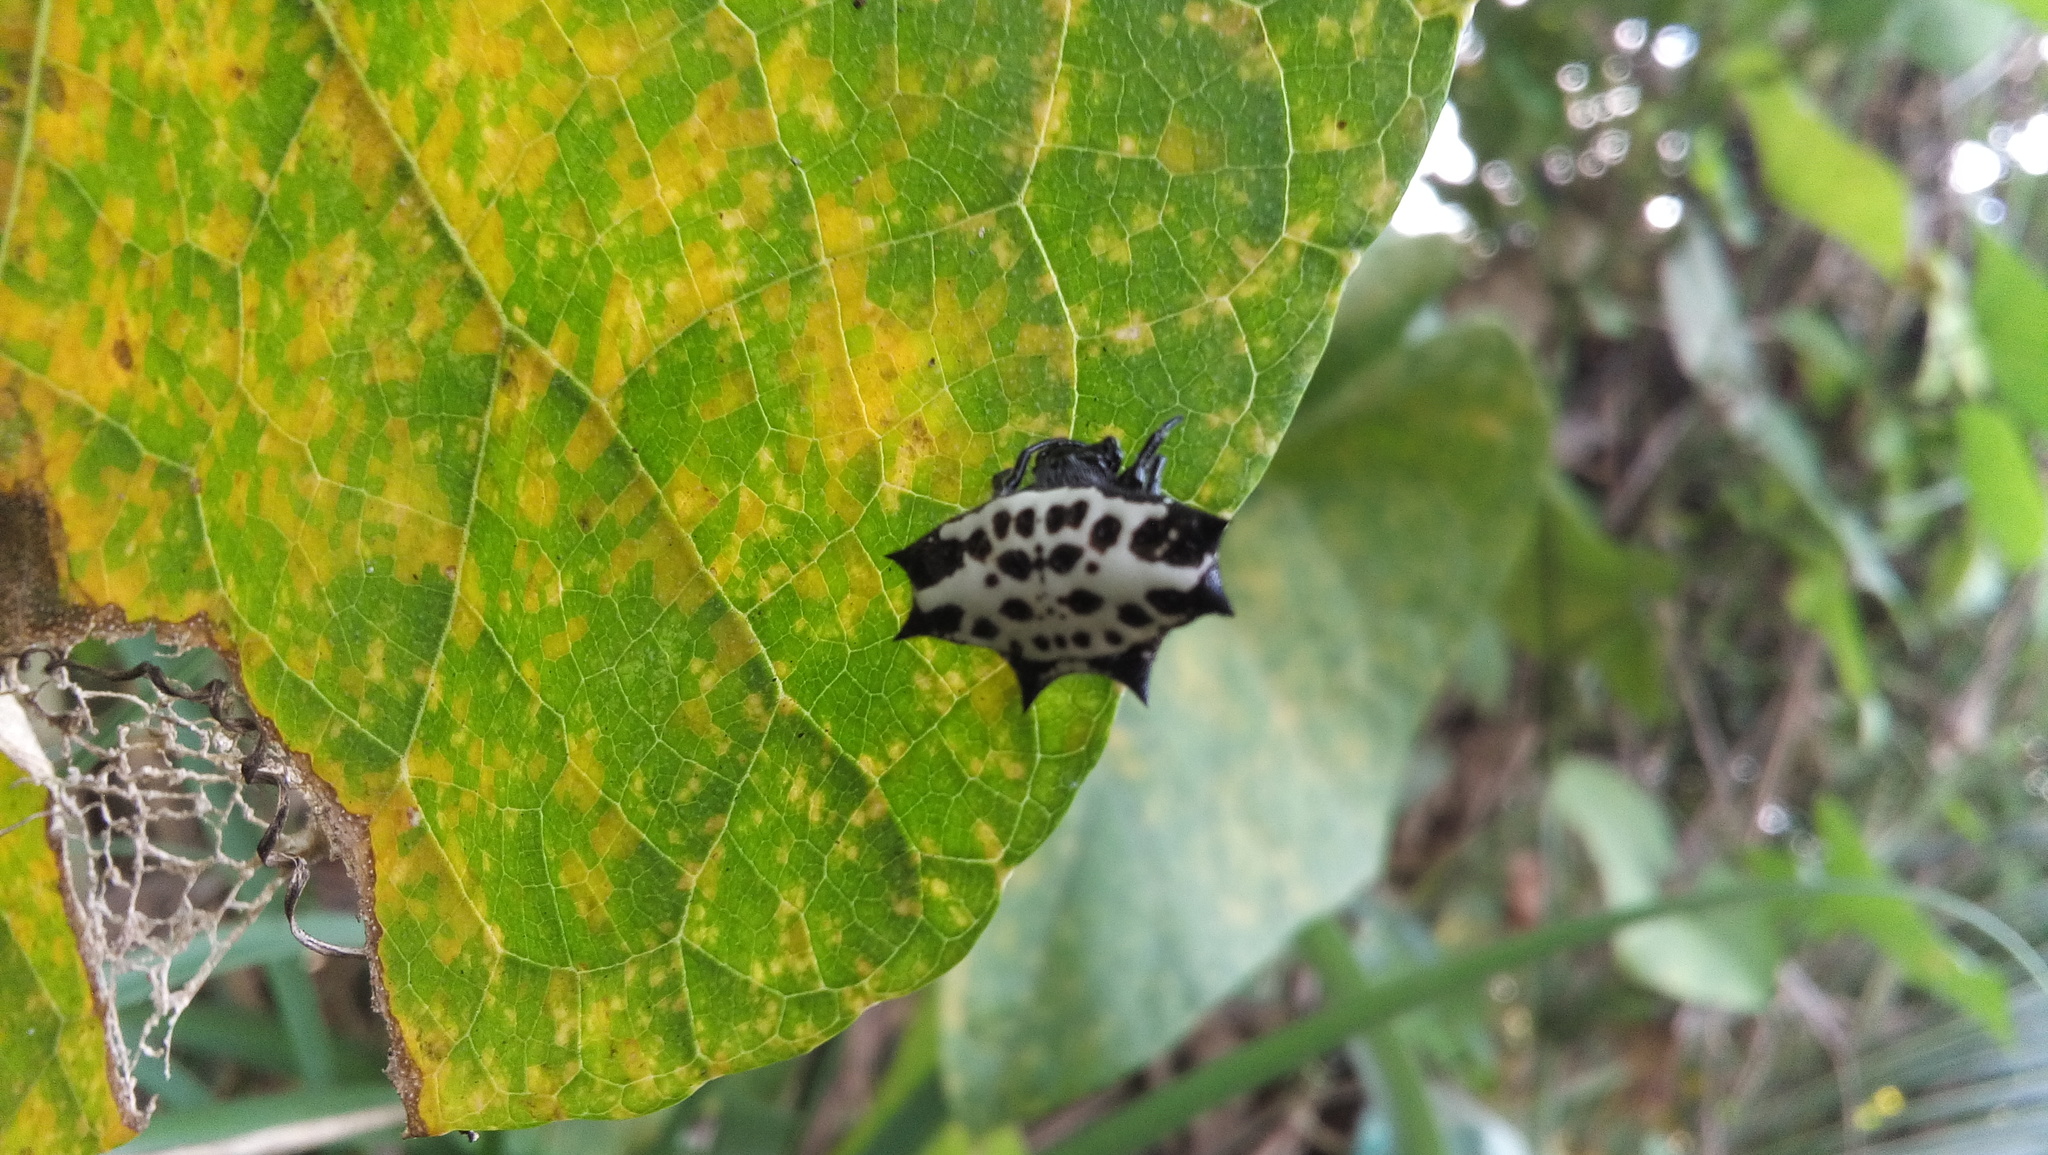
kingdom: Animalia
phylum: Arthropoda
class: Arachnida
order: Araneae
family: Araneidae
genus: Gasteracantha
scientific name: Gasteracantha cancriformis
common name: Orb weavers
